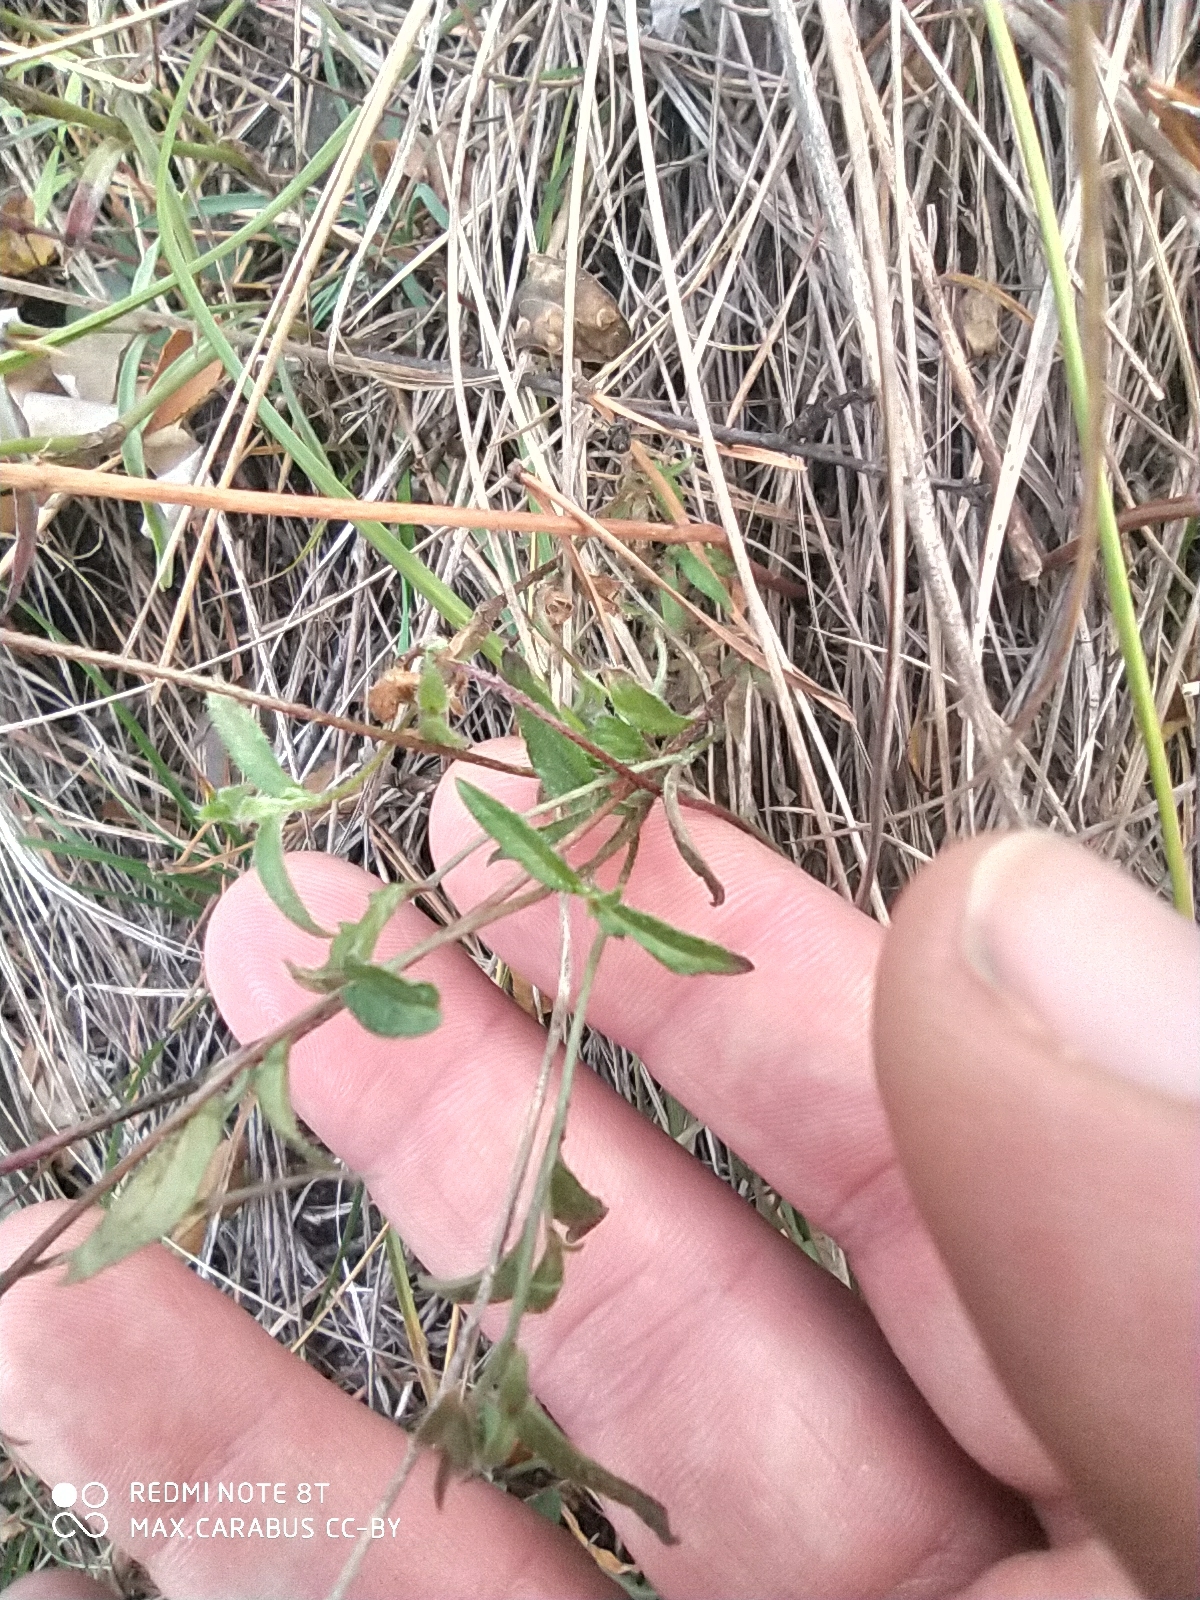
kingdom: Plantae
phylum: Tracheophyta
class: Magnoliopsida
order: Asterales
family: Campanulaceae
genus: Campanula
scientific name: Campanula sibirica
